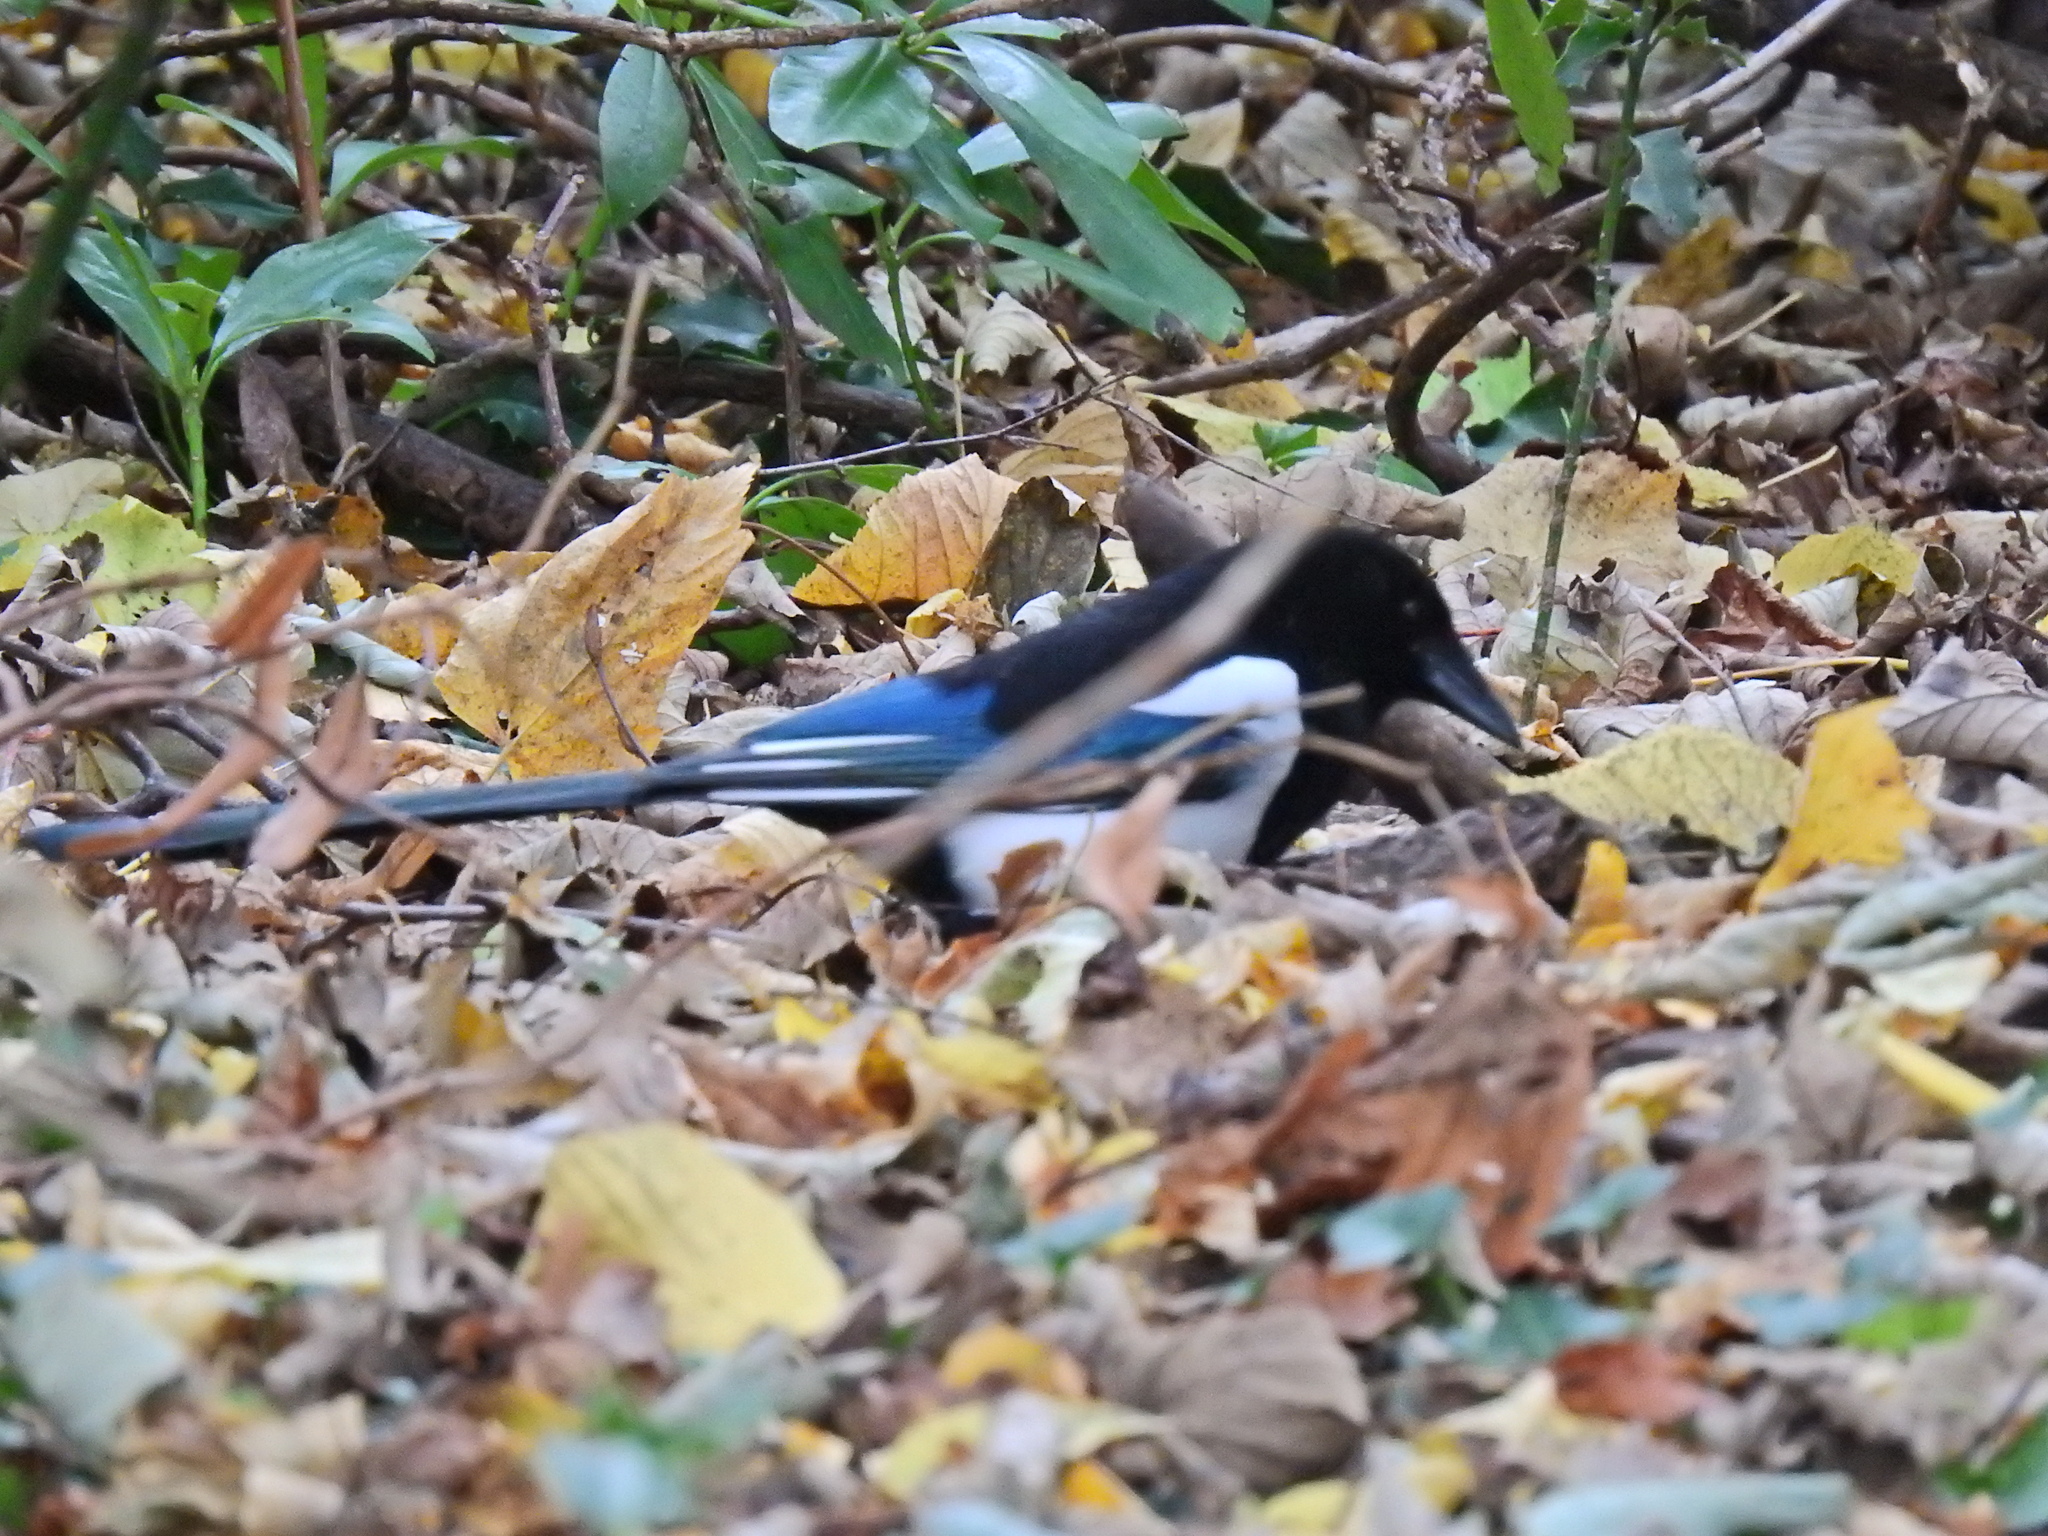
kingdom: Animalia
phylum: Chordata
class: Aves
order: Passeriformes
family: Corvidae
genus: Pica
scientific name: Pica pica
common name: Eurasian magpie
